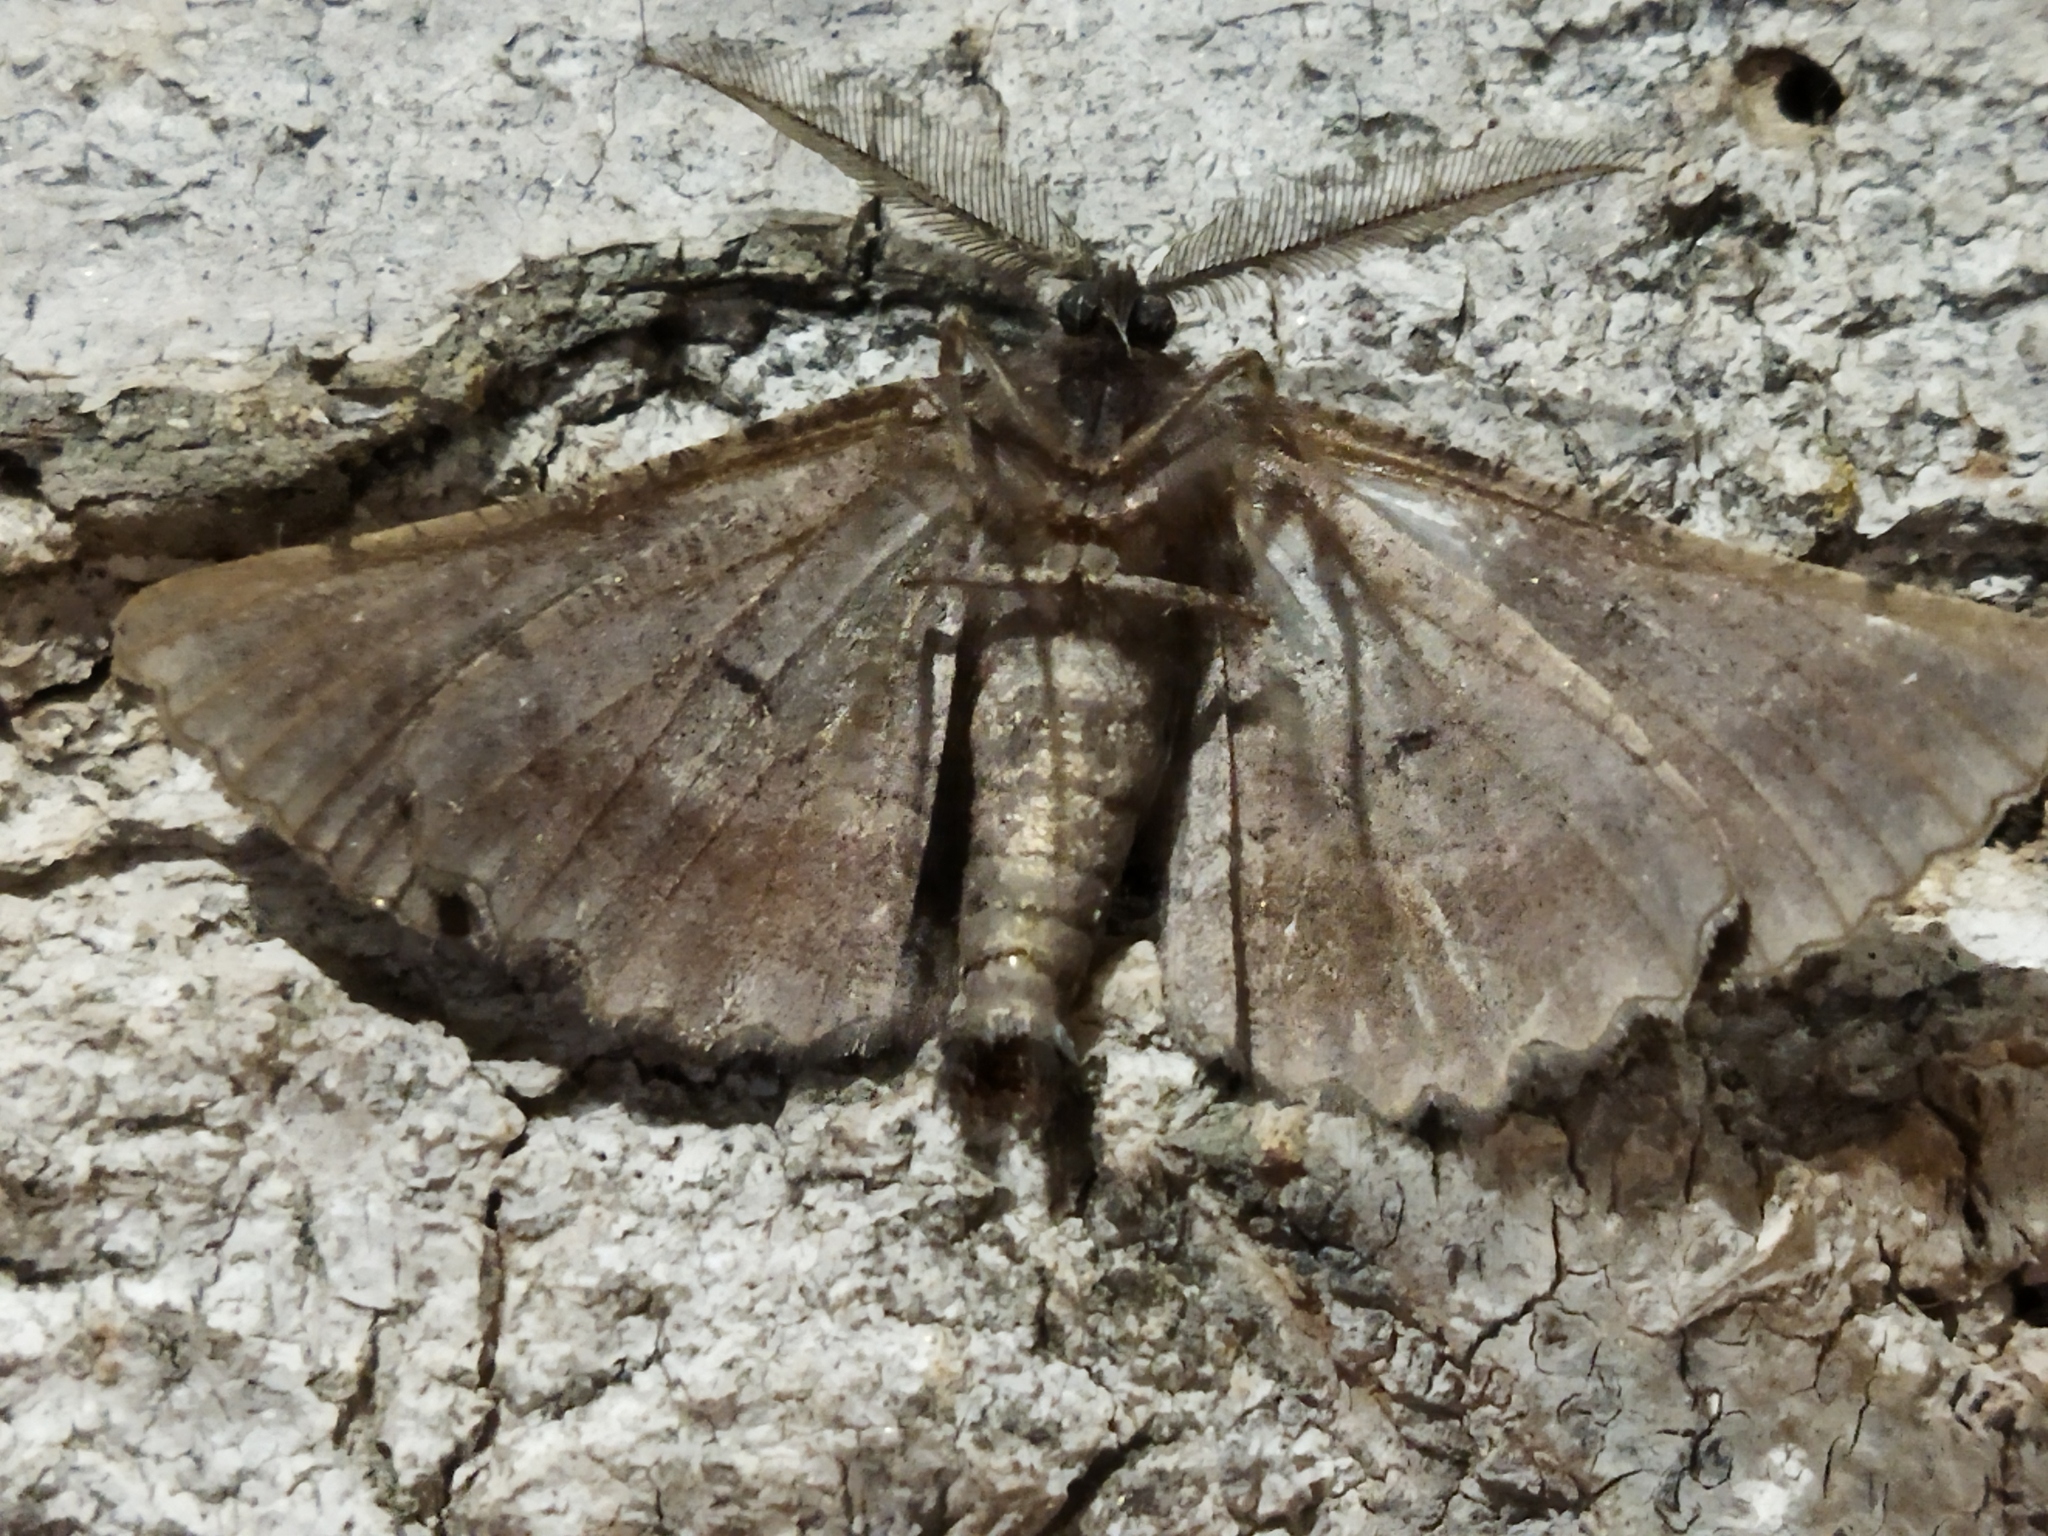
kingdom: Animalia
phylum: Arthropoda
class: Insecta
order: Lepidoptera
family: Geometridae
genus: Nychiodes
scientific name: Nychiodes waltheri
